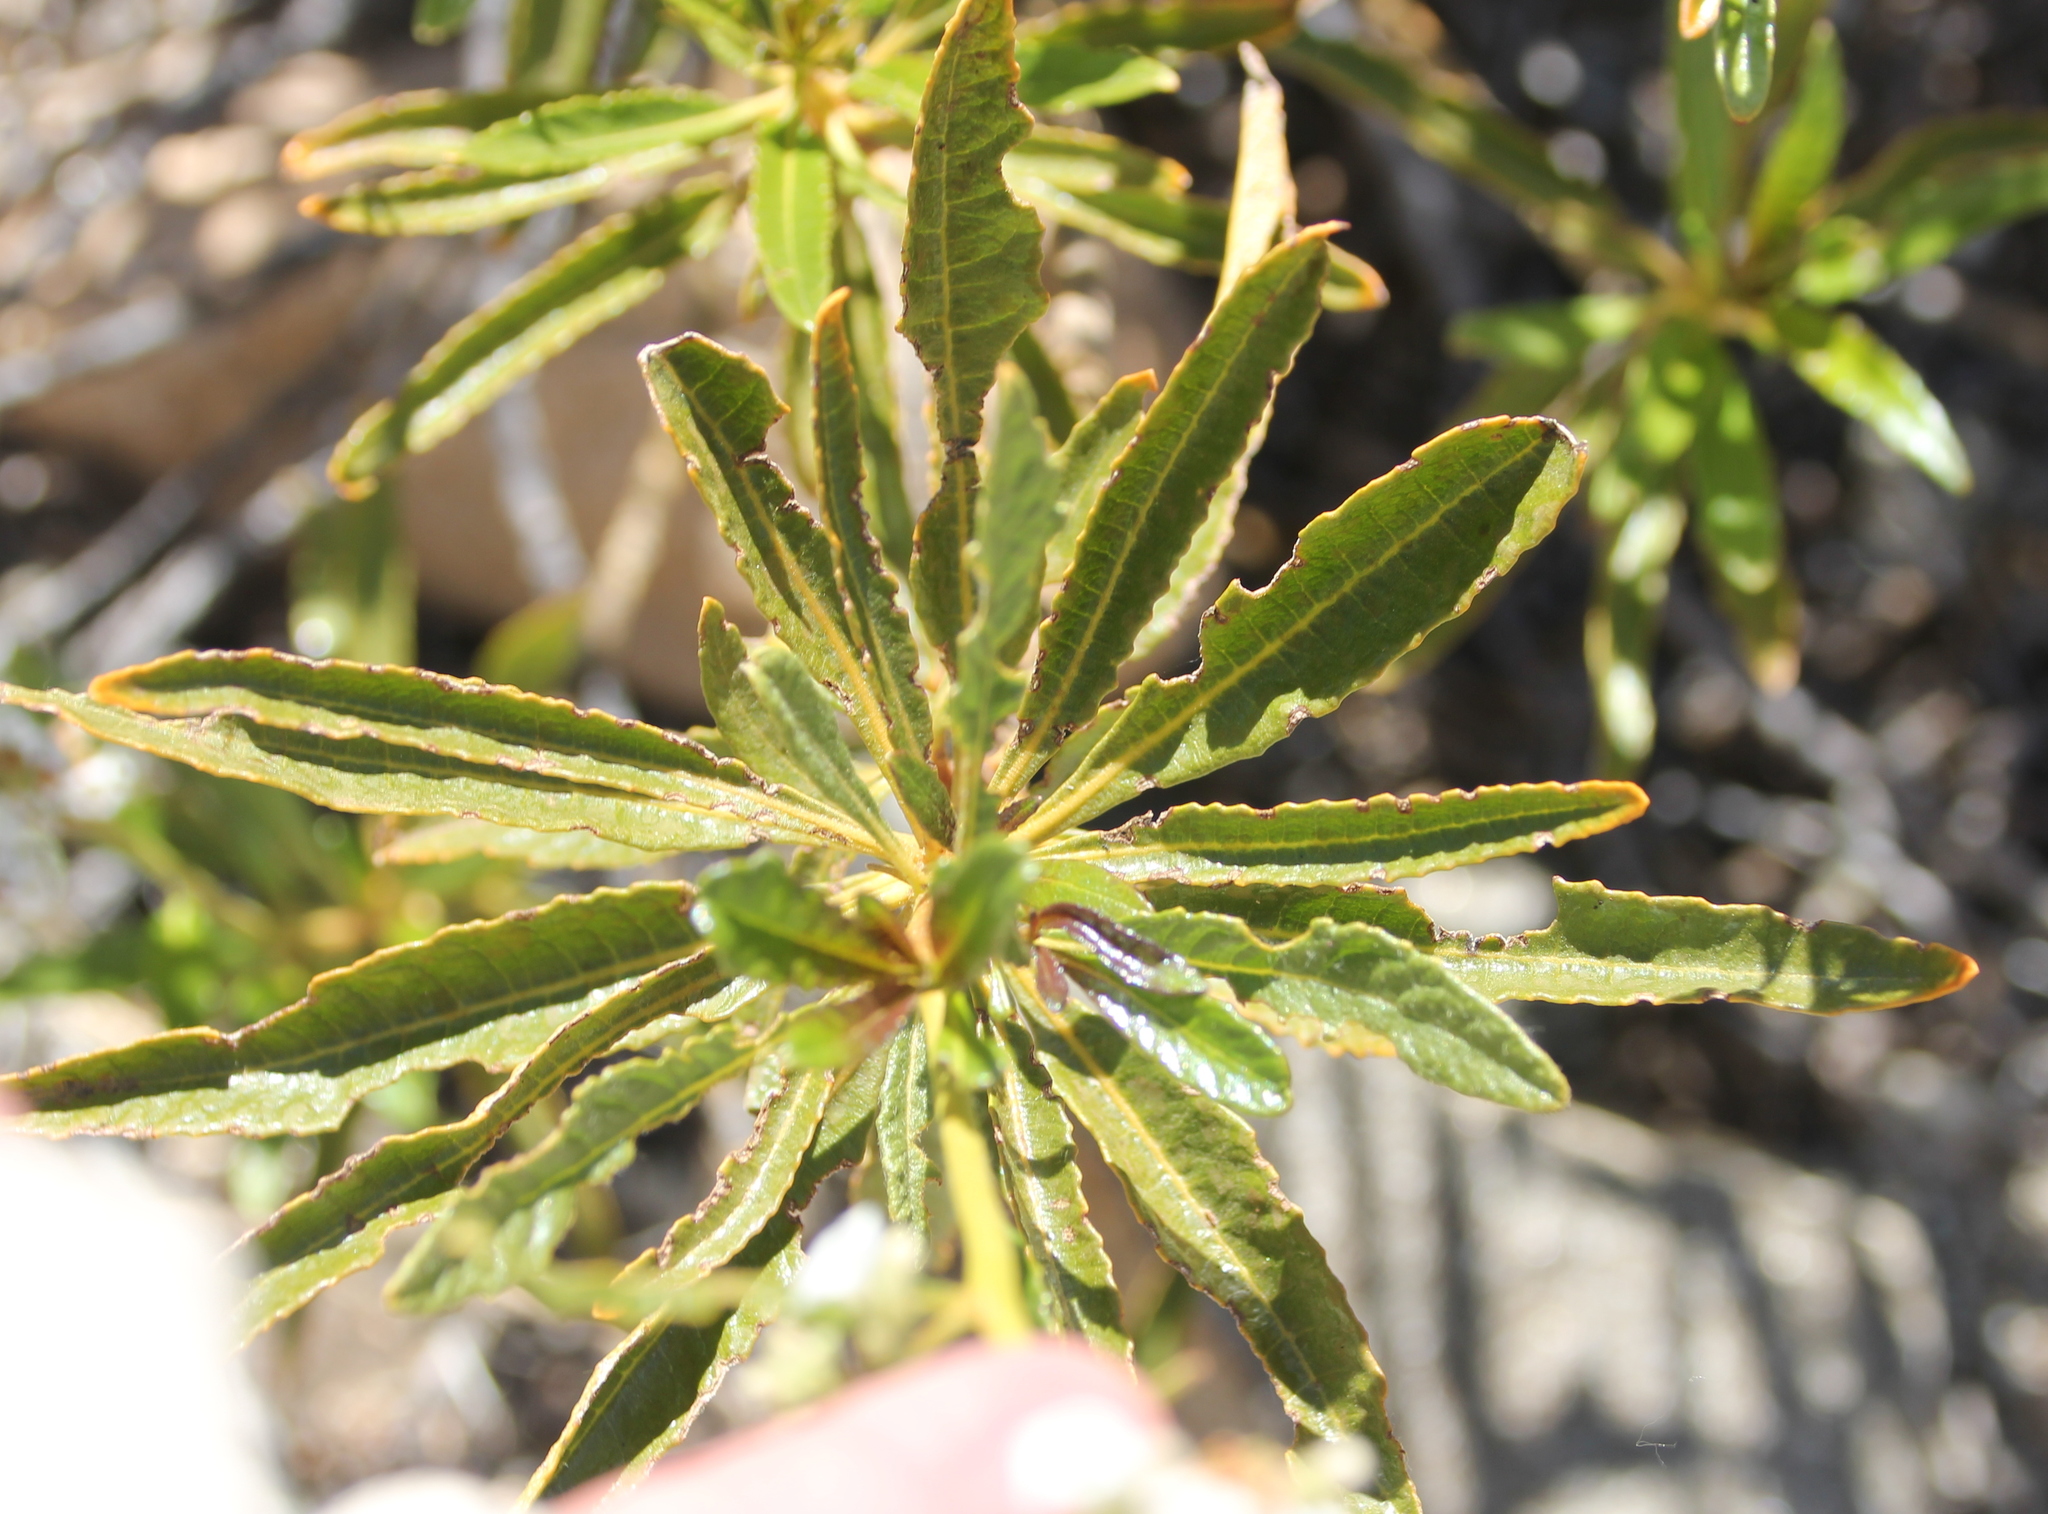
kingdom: Plantae
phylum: Tracheophyta
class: Magnoliopsida
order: Boraginales
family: Namaceae
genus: Eriodictyon
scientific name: Eriodictyon trichocalyx
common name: Hairy yerba-santa
